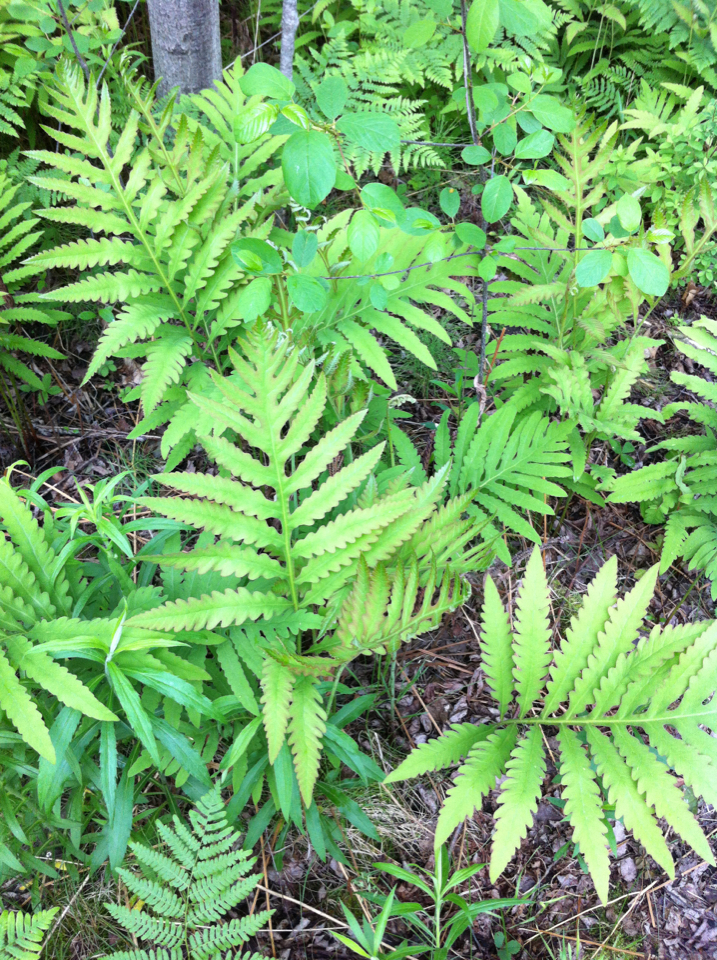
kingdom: Plantae
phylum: Tracheophyta
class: Polypodiopsida
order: Polypodiales
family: Onocleaceae
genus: Onoclea
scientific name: Onoclea sensibilis
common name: Sensitive fern
